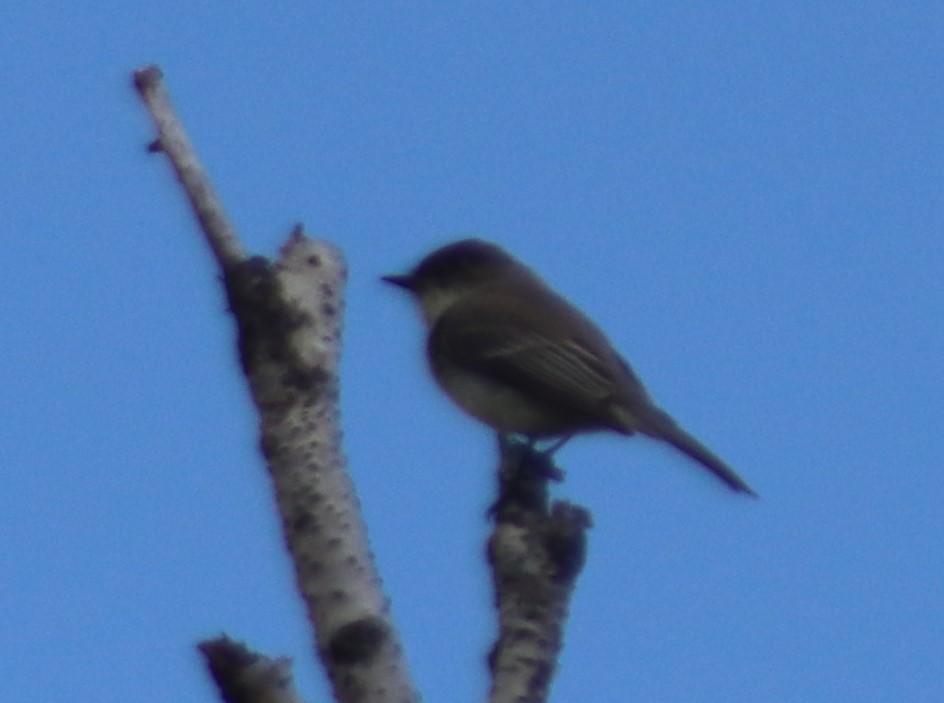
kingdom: Animalia
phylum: Chordata
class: Aves
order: Passeriformes
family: Tyrannidae
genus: Sayornis
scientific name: Sayornis phoebe
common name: Eastern phoebe
